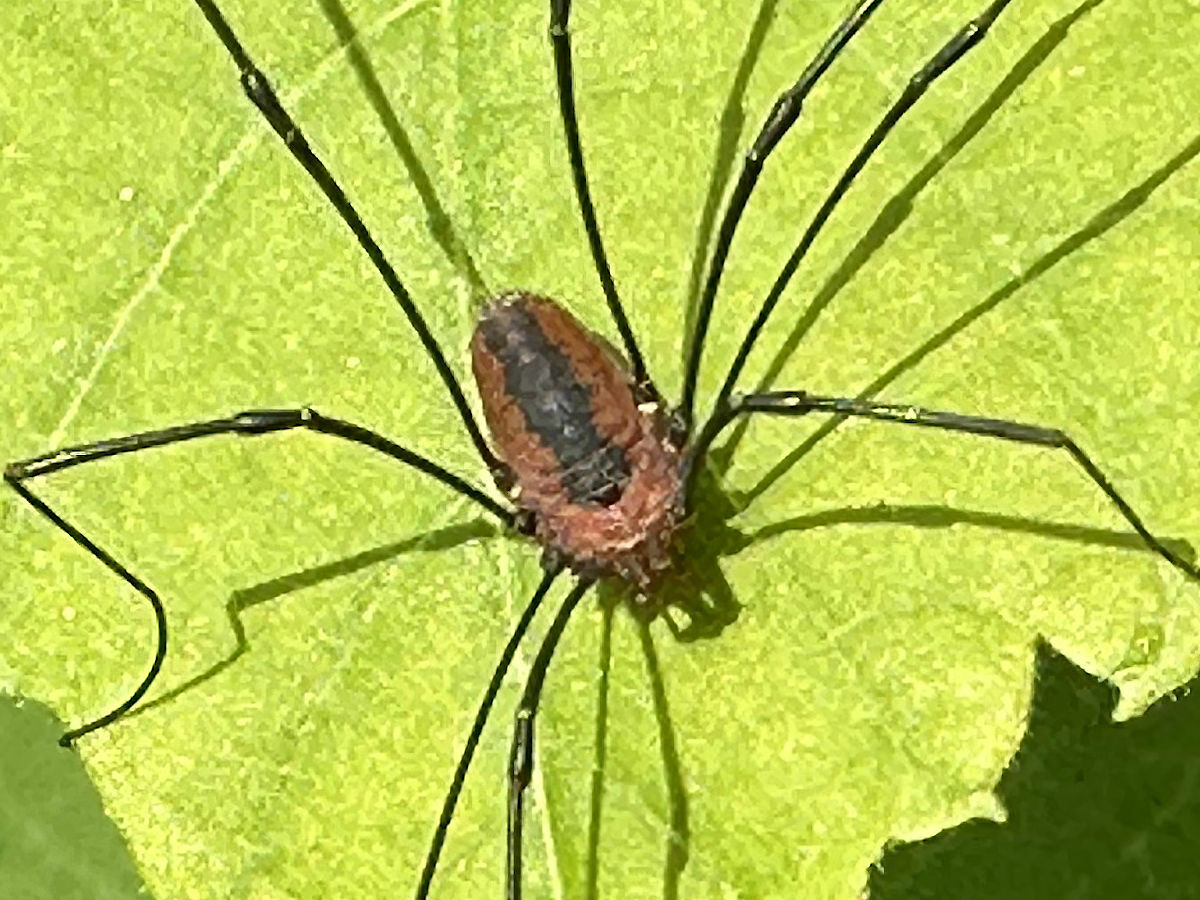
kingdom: Animalia
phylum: Arthropoda
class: Arachnida
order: Opiliones
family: Sclerosomatidae
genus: Leiobunum
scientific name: Leiobunum vittatum
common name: Eastern harvestman
